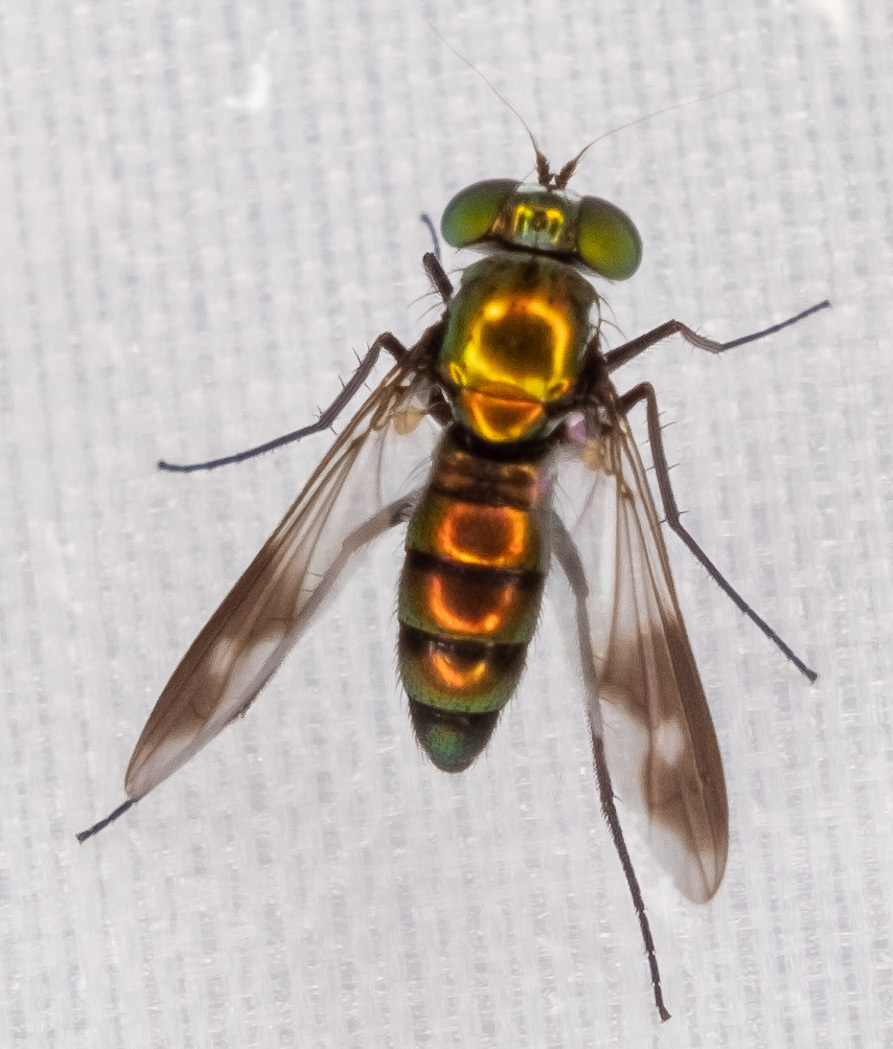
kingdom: Animalia
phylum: Arthropoda
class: Insecta
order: Diptera
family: Dolichopodidae
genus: Condylostylus
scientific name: Condylostylus patibulatus
